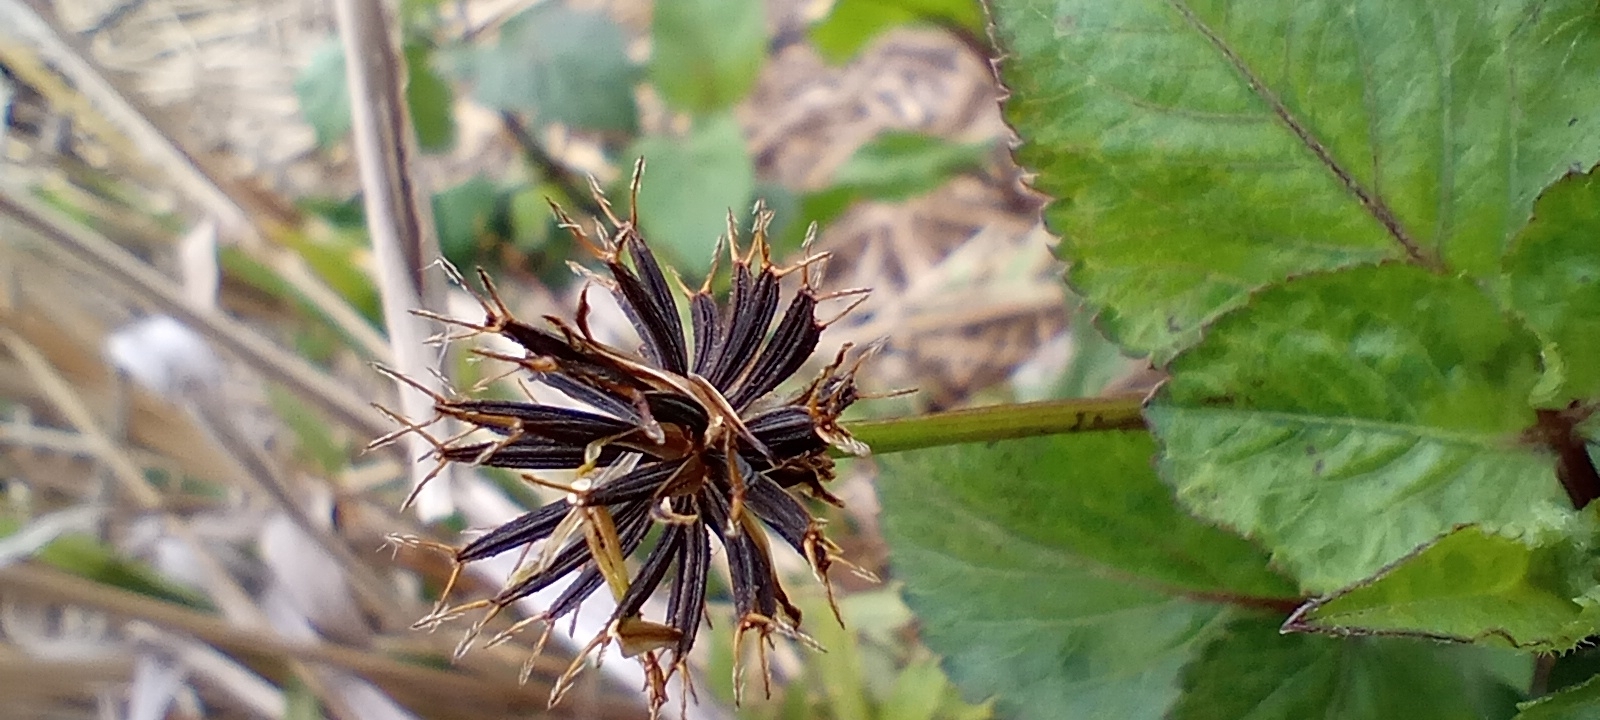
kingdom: Plantae
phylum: Tracheophyta
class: Magnoliopsida
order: Asterales
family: Asteraceae
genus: Bidens
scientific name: Bidens pilosa
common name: Black-jack
